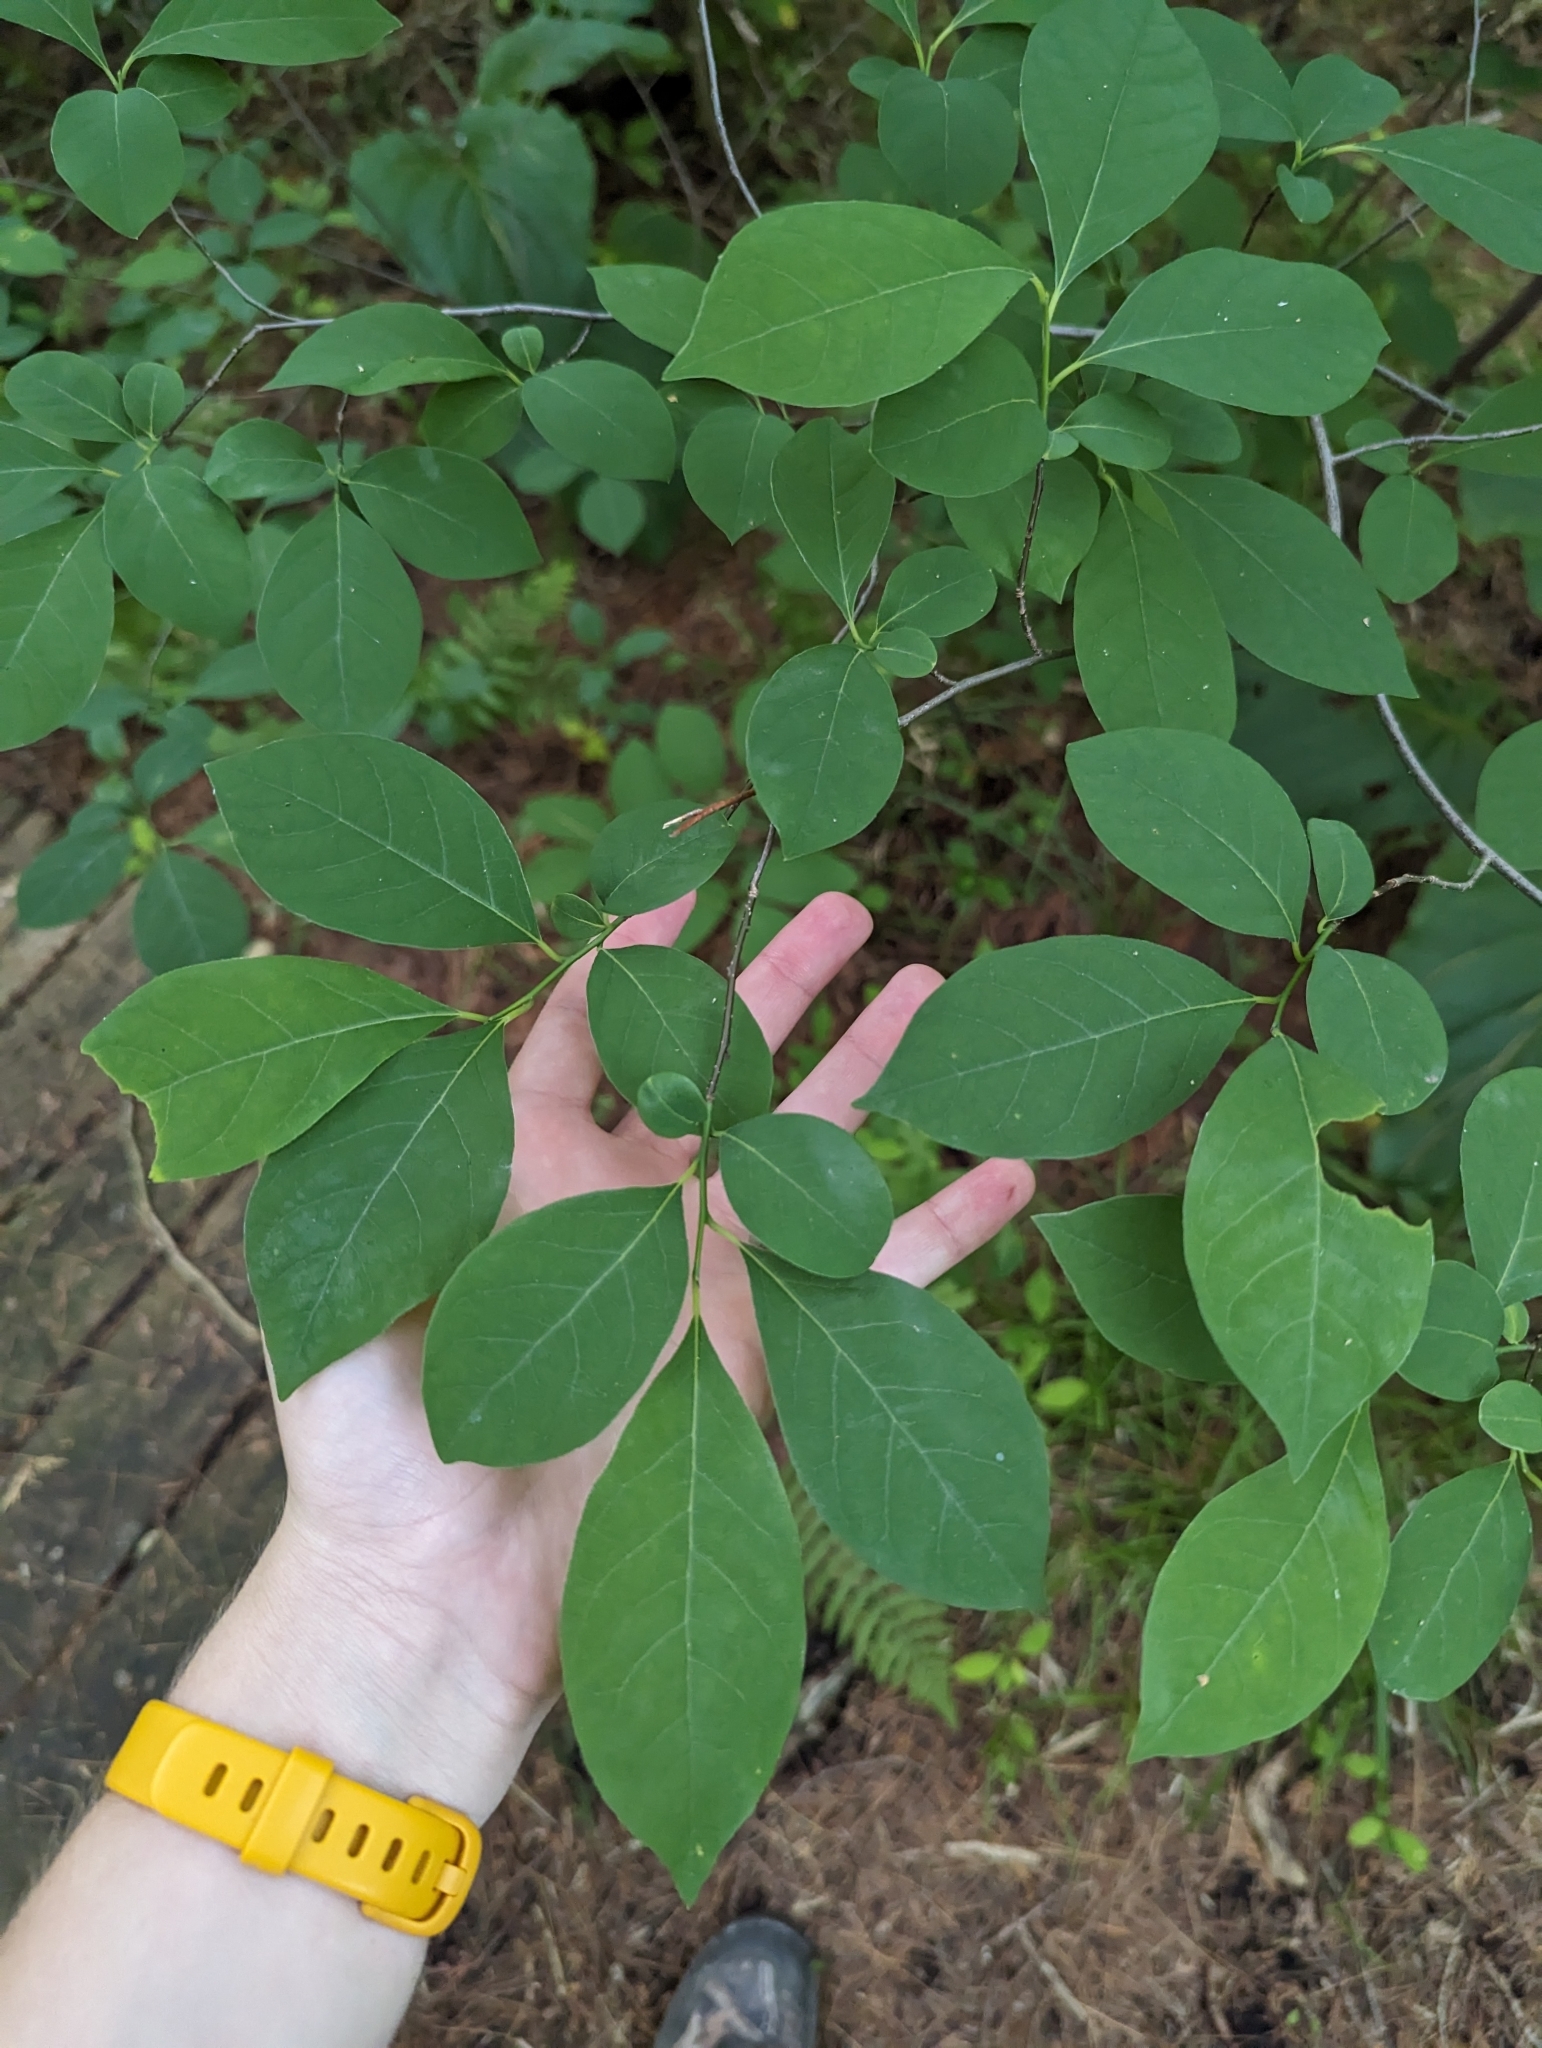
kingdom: Plantae
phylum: Tracheophyta
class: Magnoliopsida
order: Laurales
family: Lauraceae
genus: Lindera
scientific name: Lindera benzoin
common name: Spicebush
